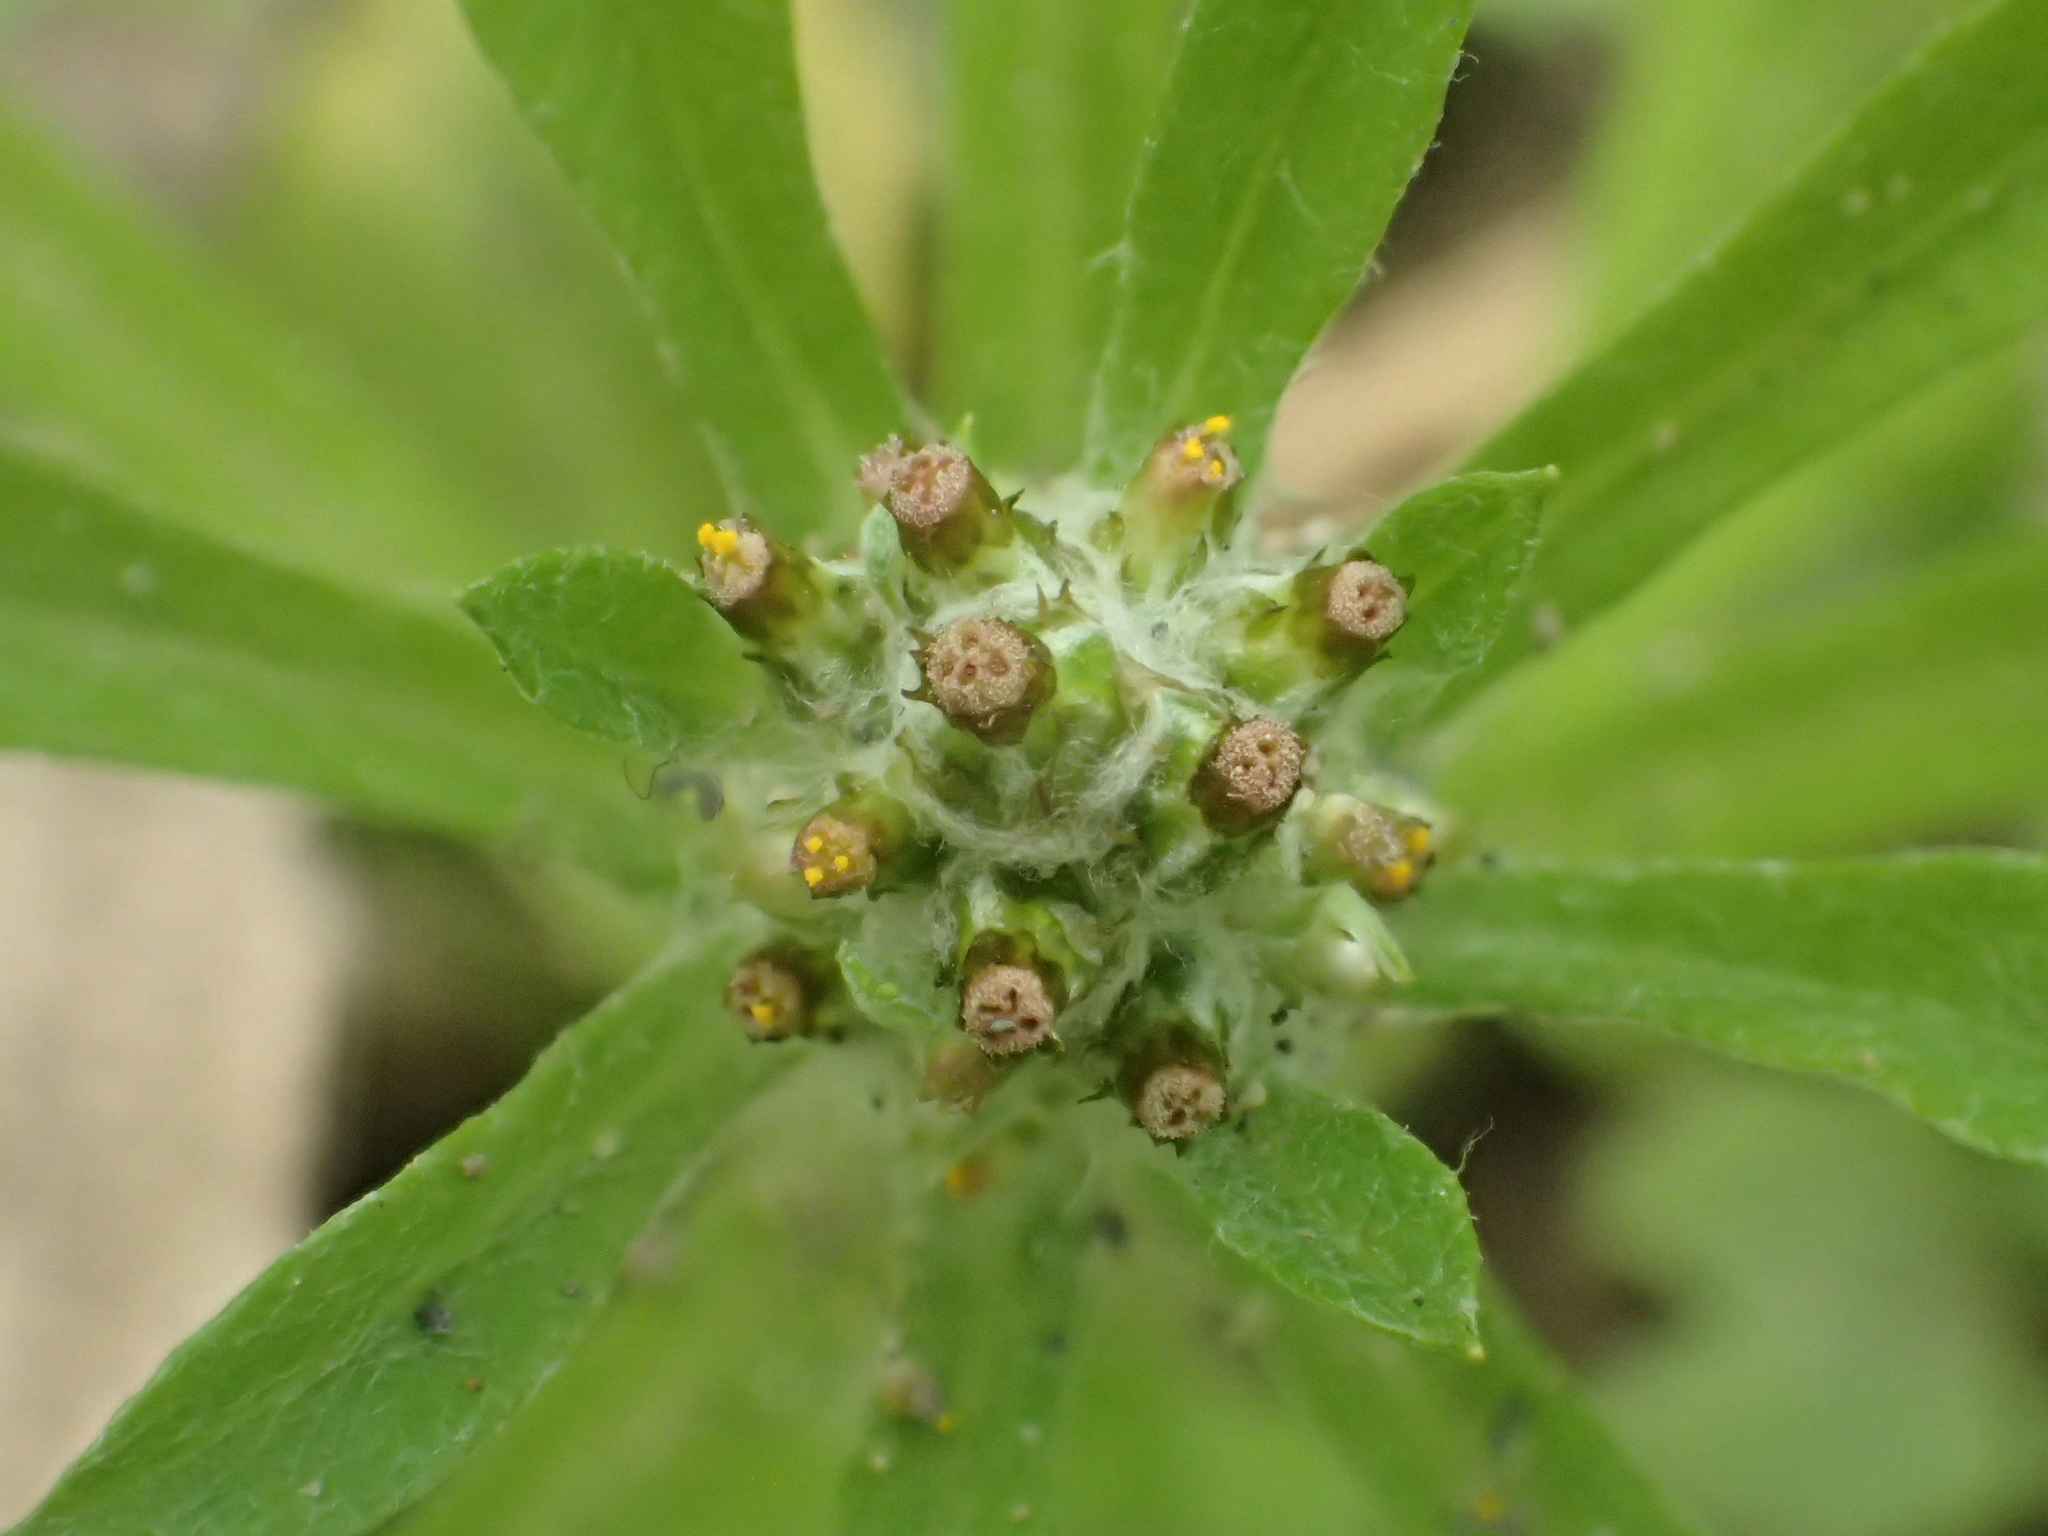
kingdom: Plantae
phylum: Tracheophyta
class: Magnoliopsida
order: Asterales
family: Asteraceae
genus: Gamochaeta
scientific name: Gamochaeta pensylvanica
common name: Pennsylvania everlasting
